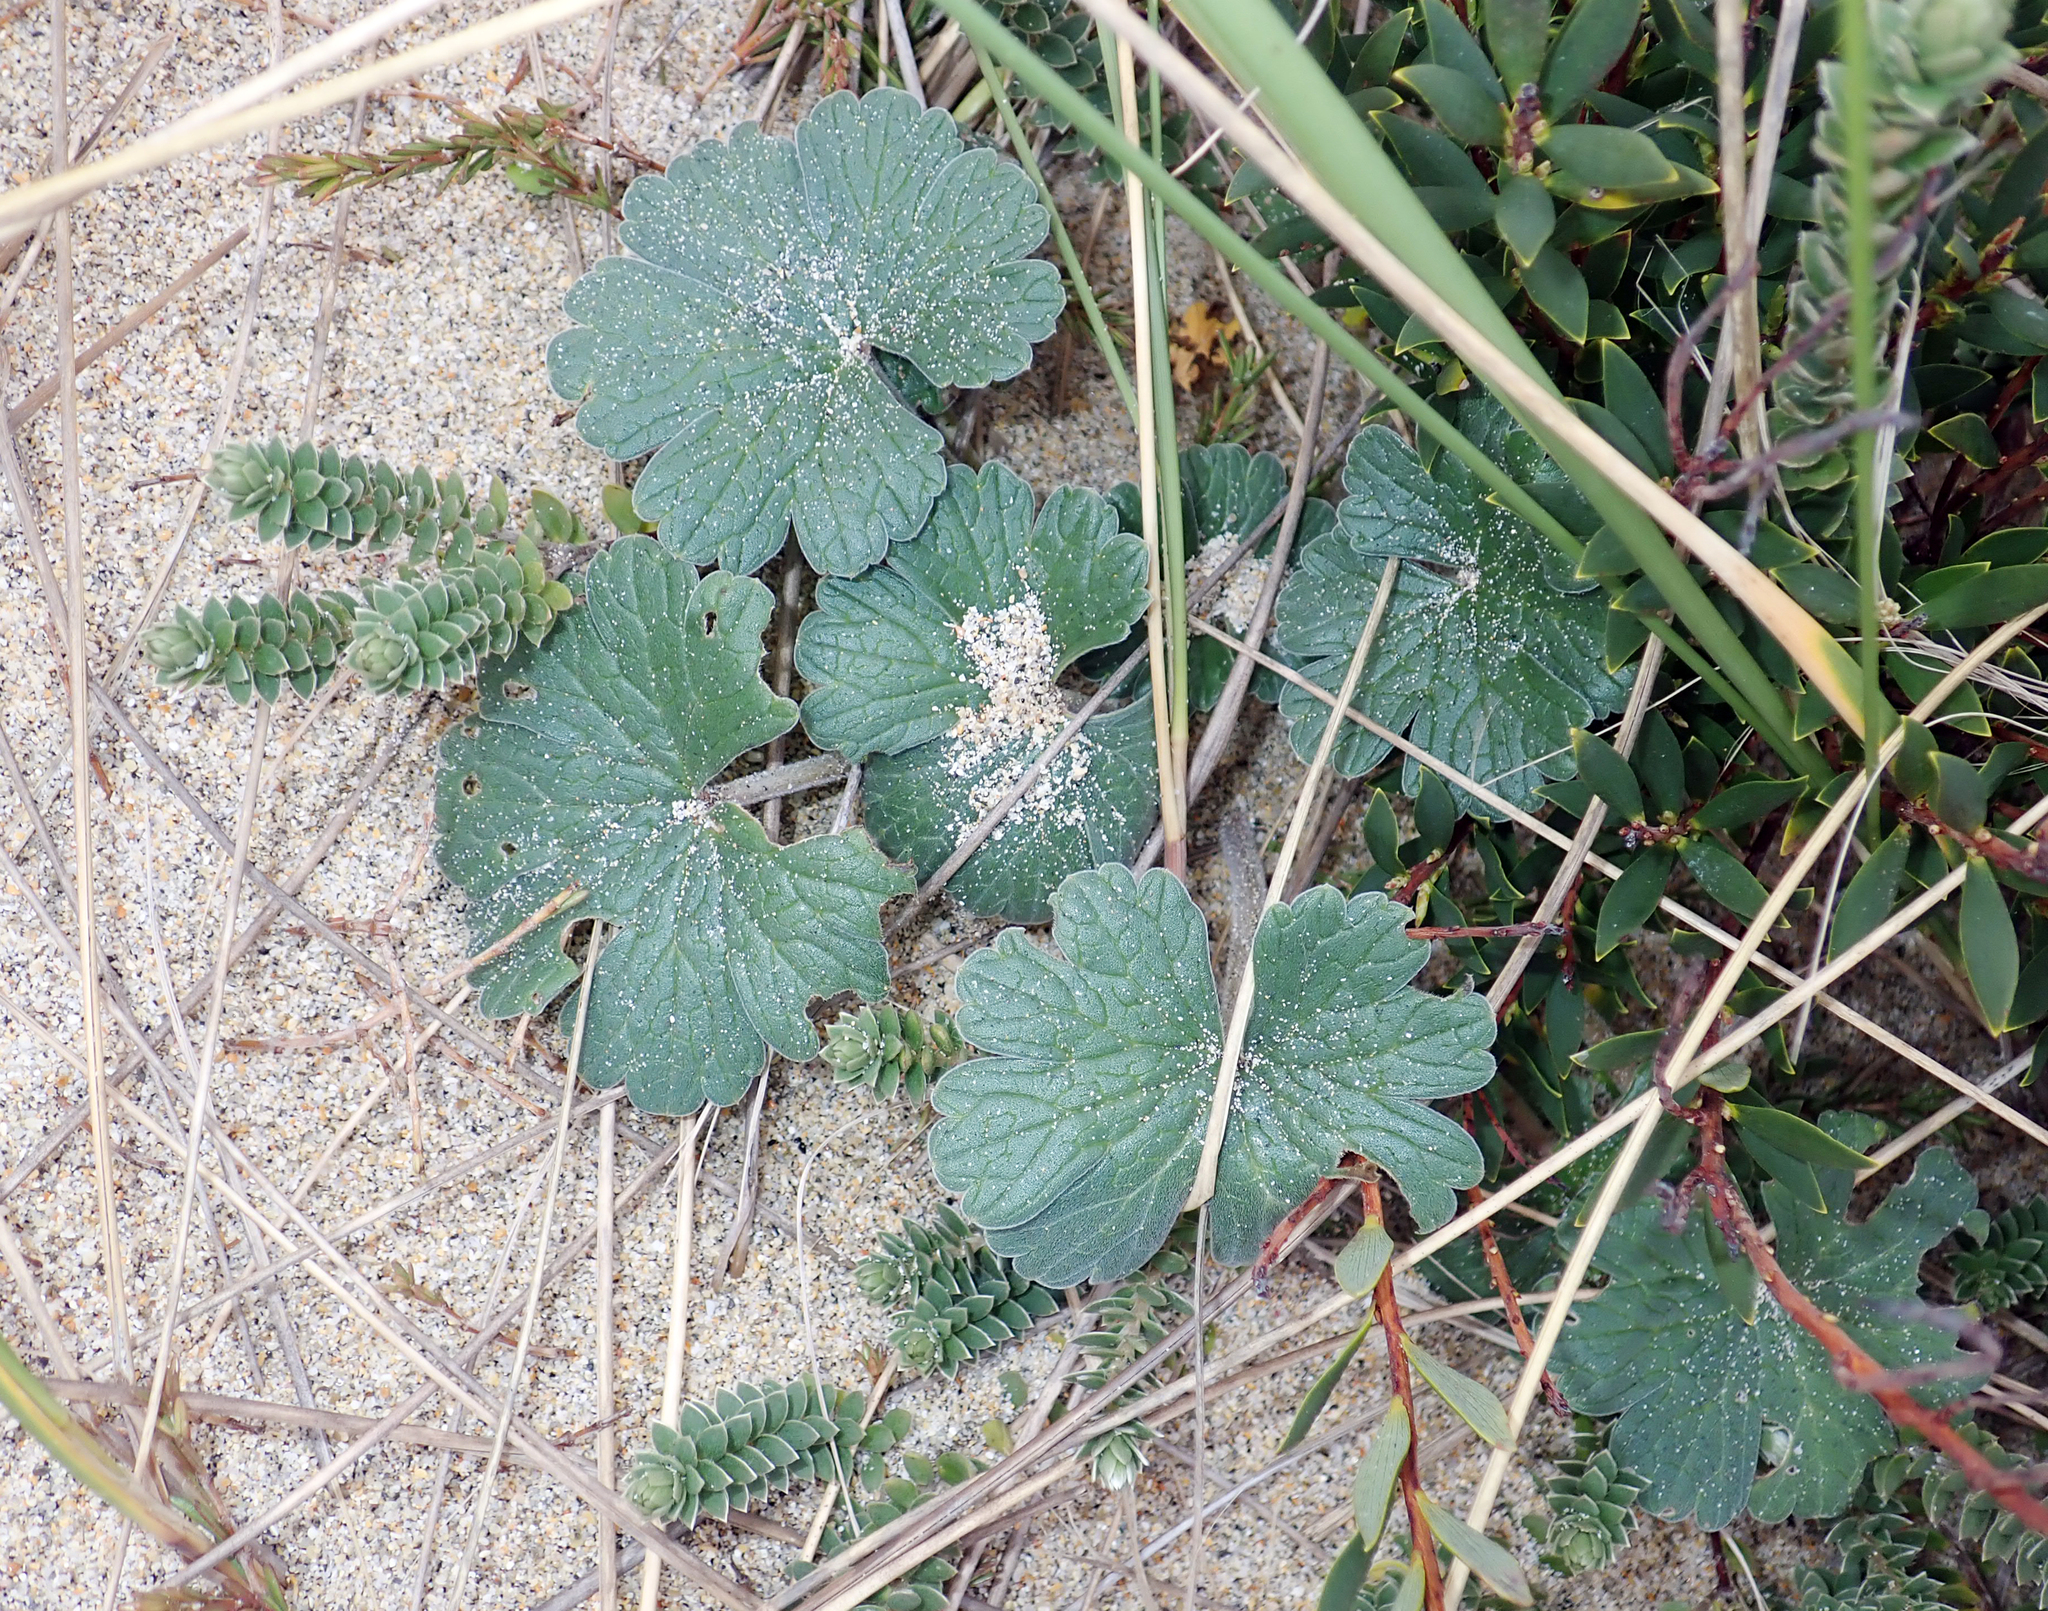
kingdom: Plantae
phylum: Tracheophyta
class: Magnoliopsida
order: Geraniales
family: Geraniaceae
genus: Geranium
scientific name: Geranium traversii
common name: Cranesbill
